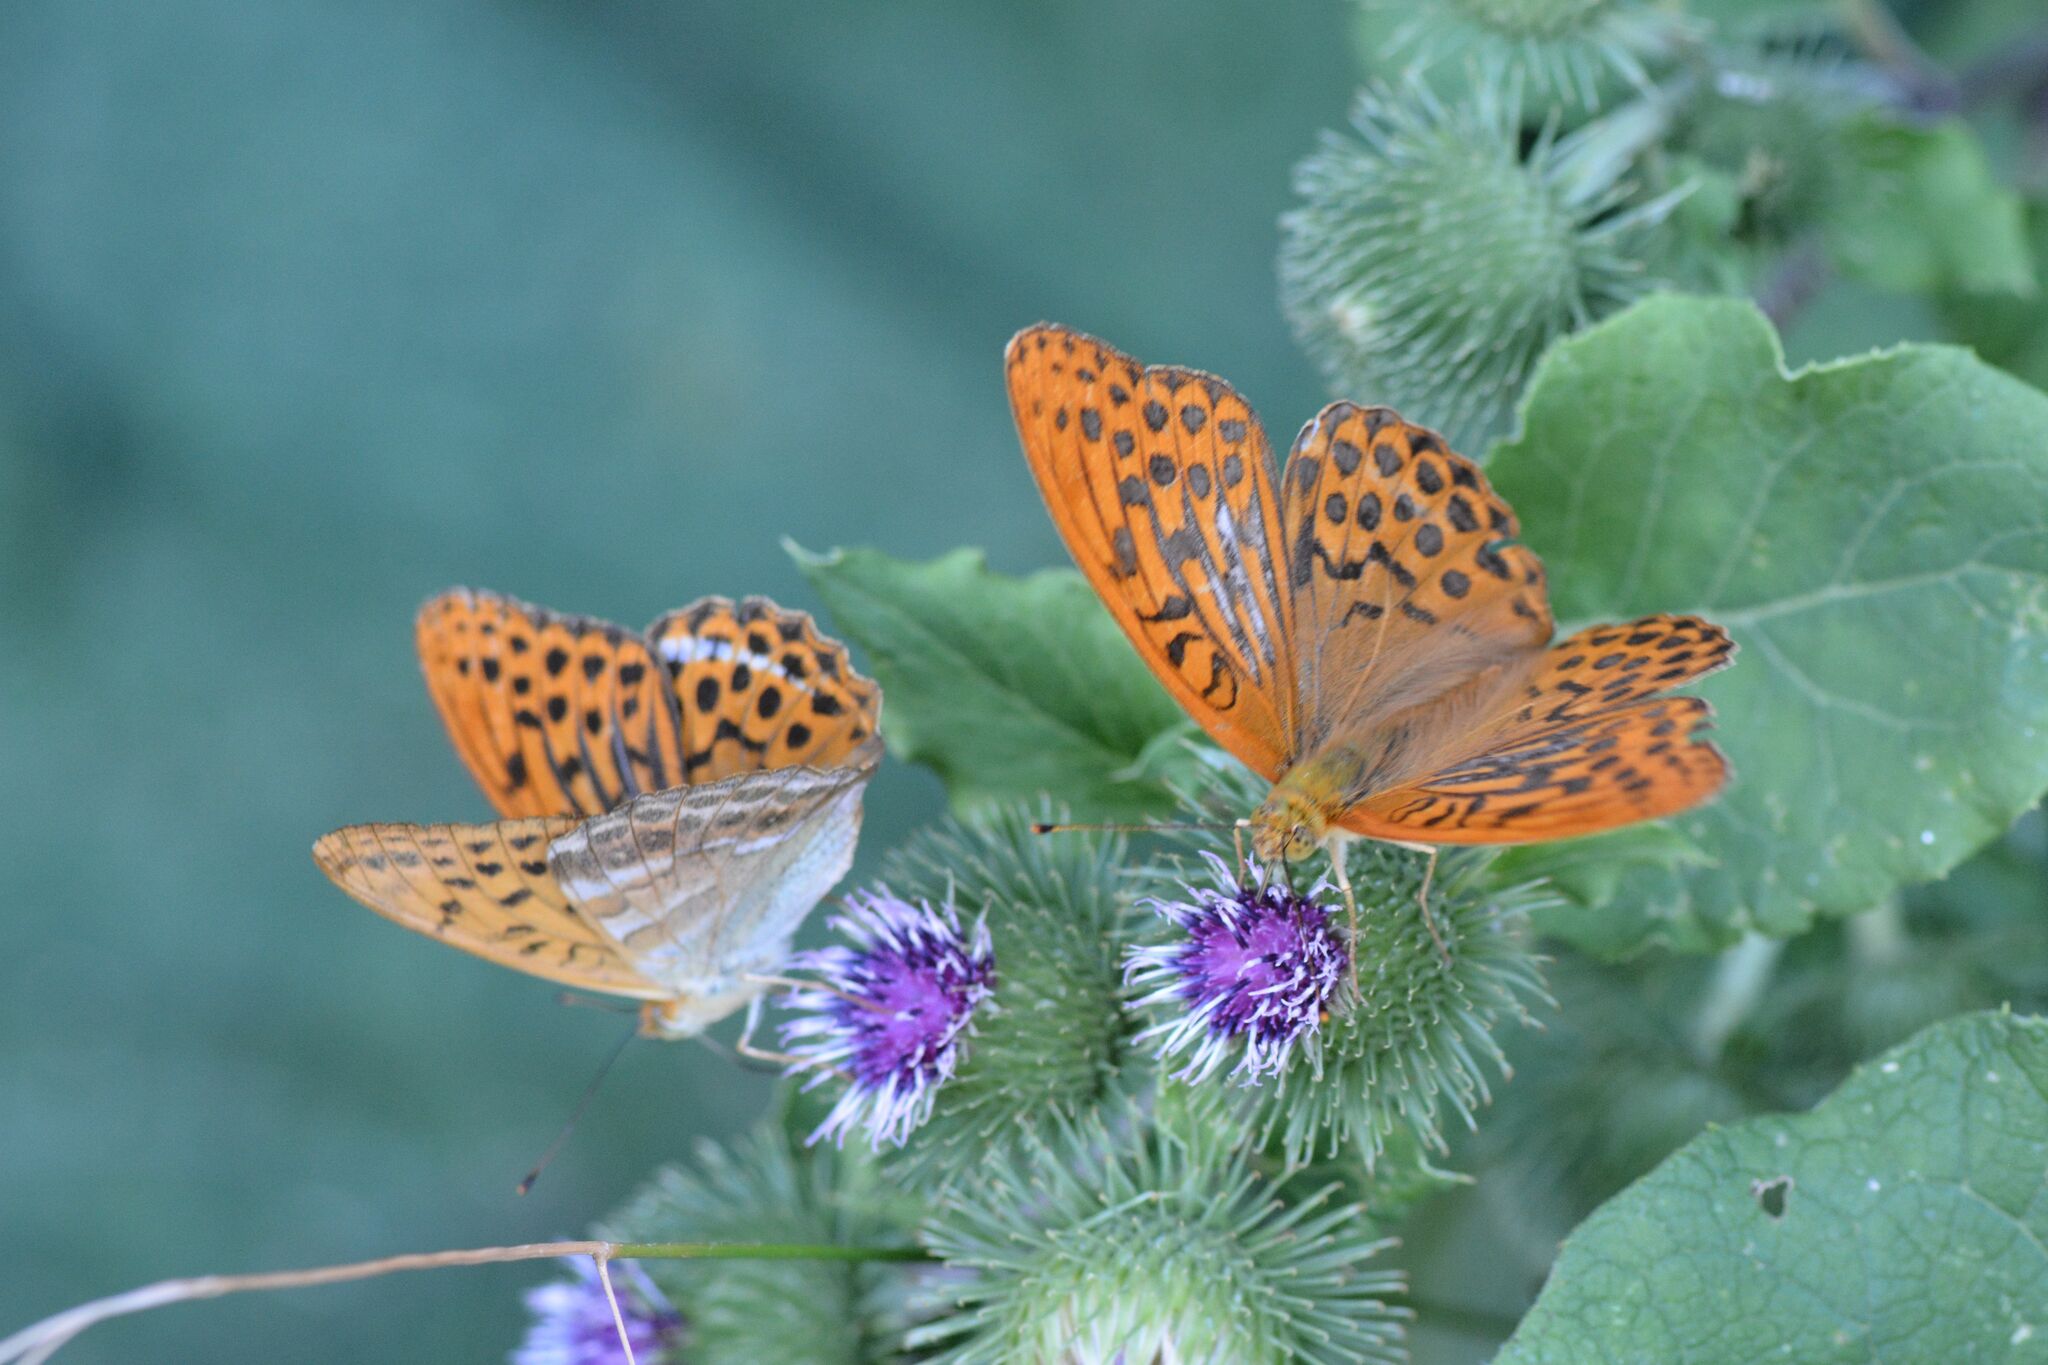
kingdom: Animalia
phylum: Arthropoda
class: Insecta
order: Lepidoptera
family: Nymphalidae
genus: Argynnis
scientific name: Argynnis paphia
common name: Silver-washed fritillary
